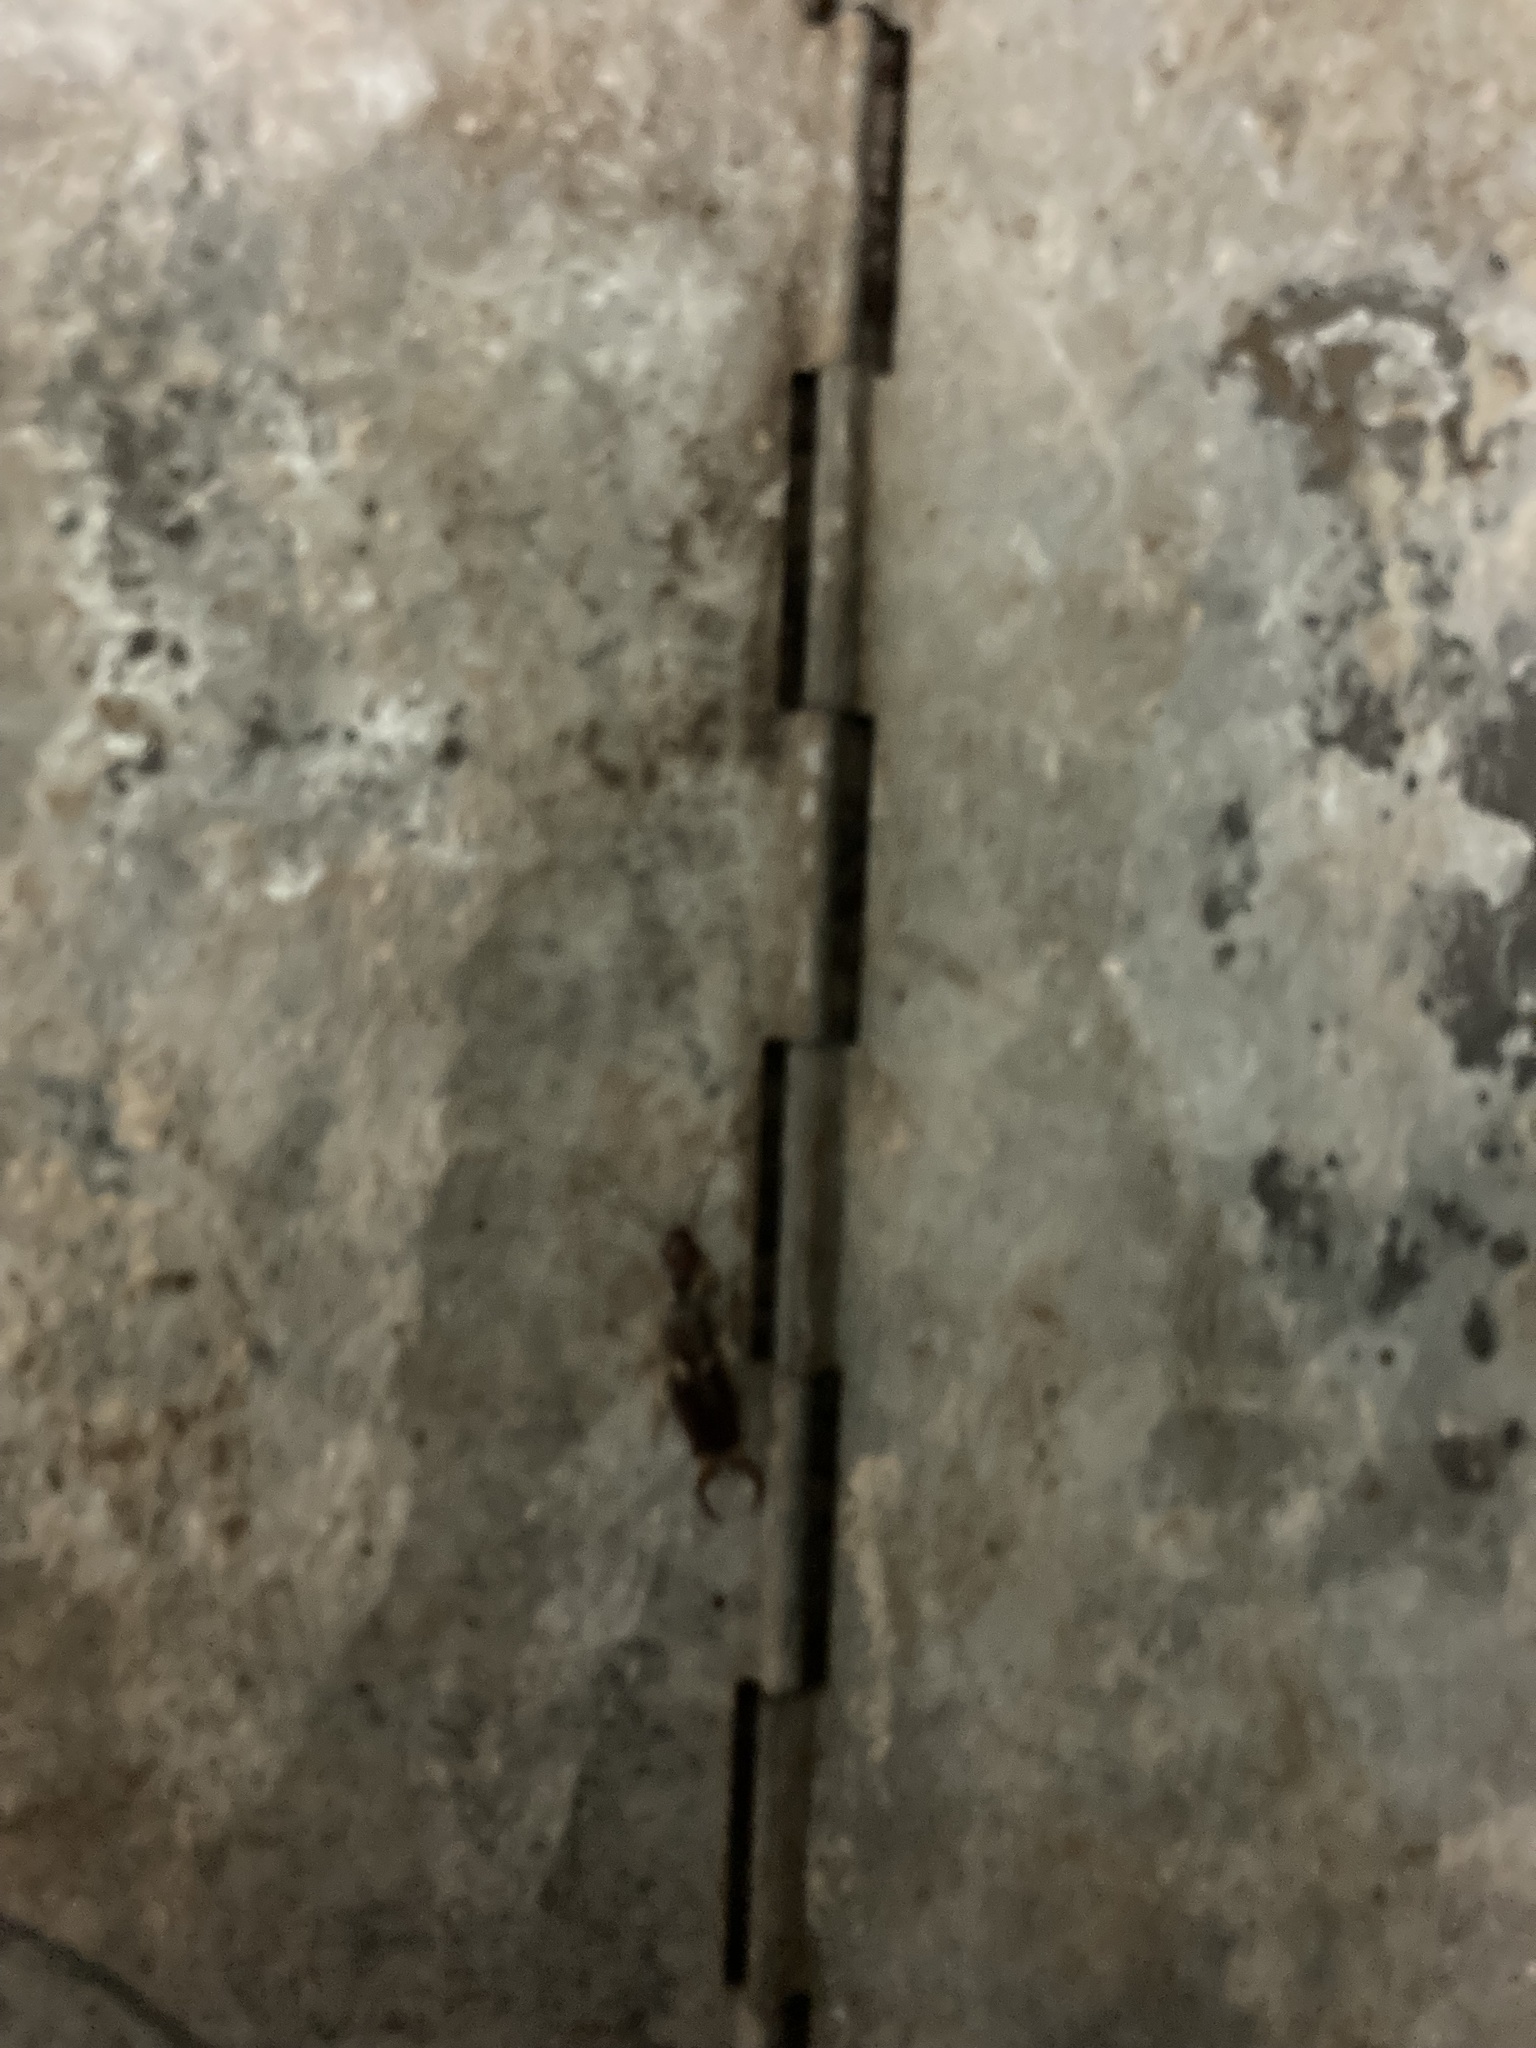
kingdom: Animalia
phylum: Arthropoda
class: Insecta
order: Dermaptera
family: Forficulidae
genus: Forficula
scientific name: Forficula
